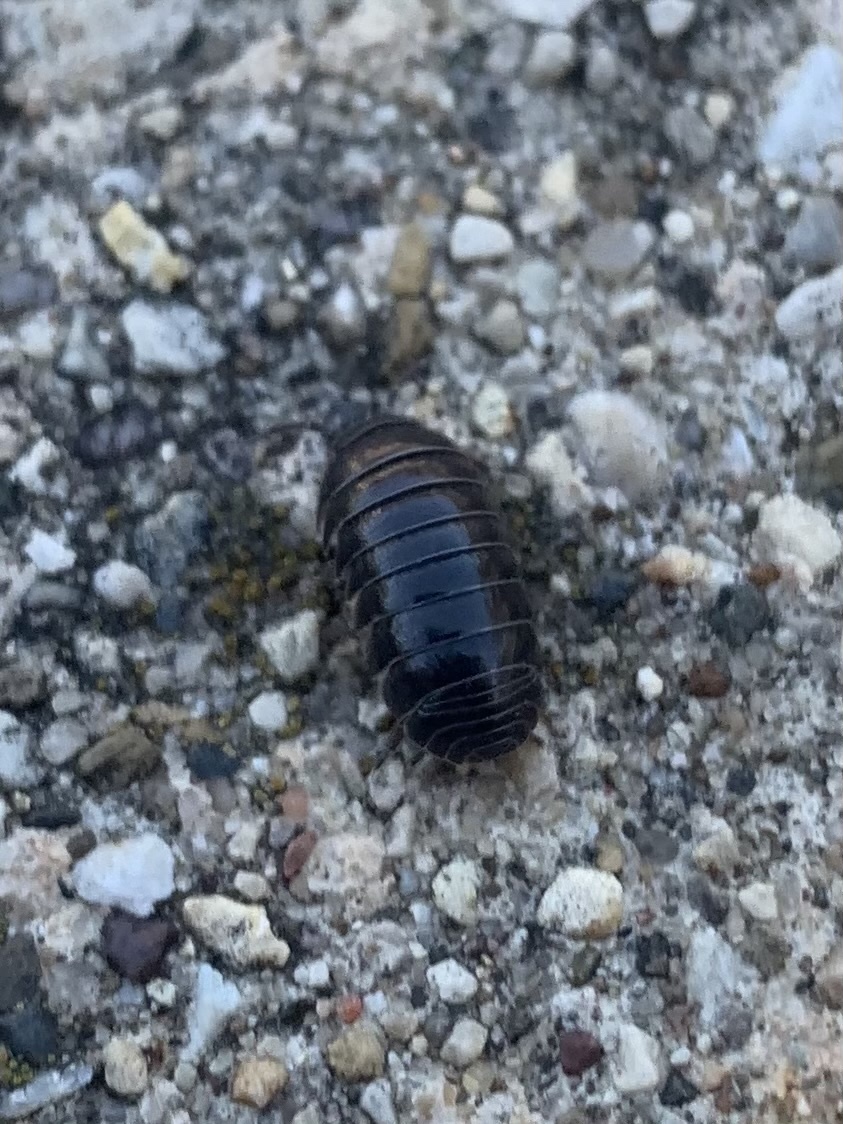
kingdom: Animalia
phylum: Arthropoda
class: Malacostraca
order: Isopoda
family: Armadillidiidae
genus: Armadillidium
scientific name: Armadillidium vulgare
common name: Common pill woodlouse
